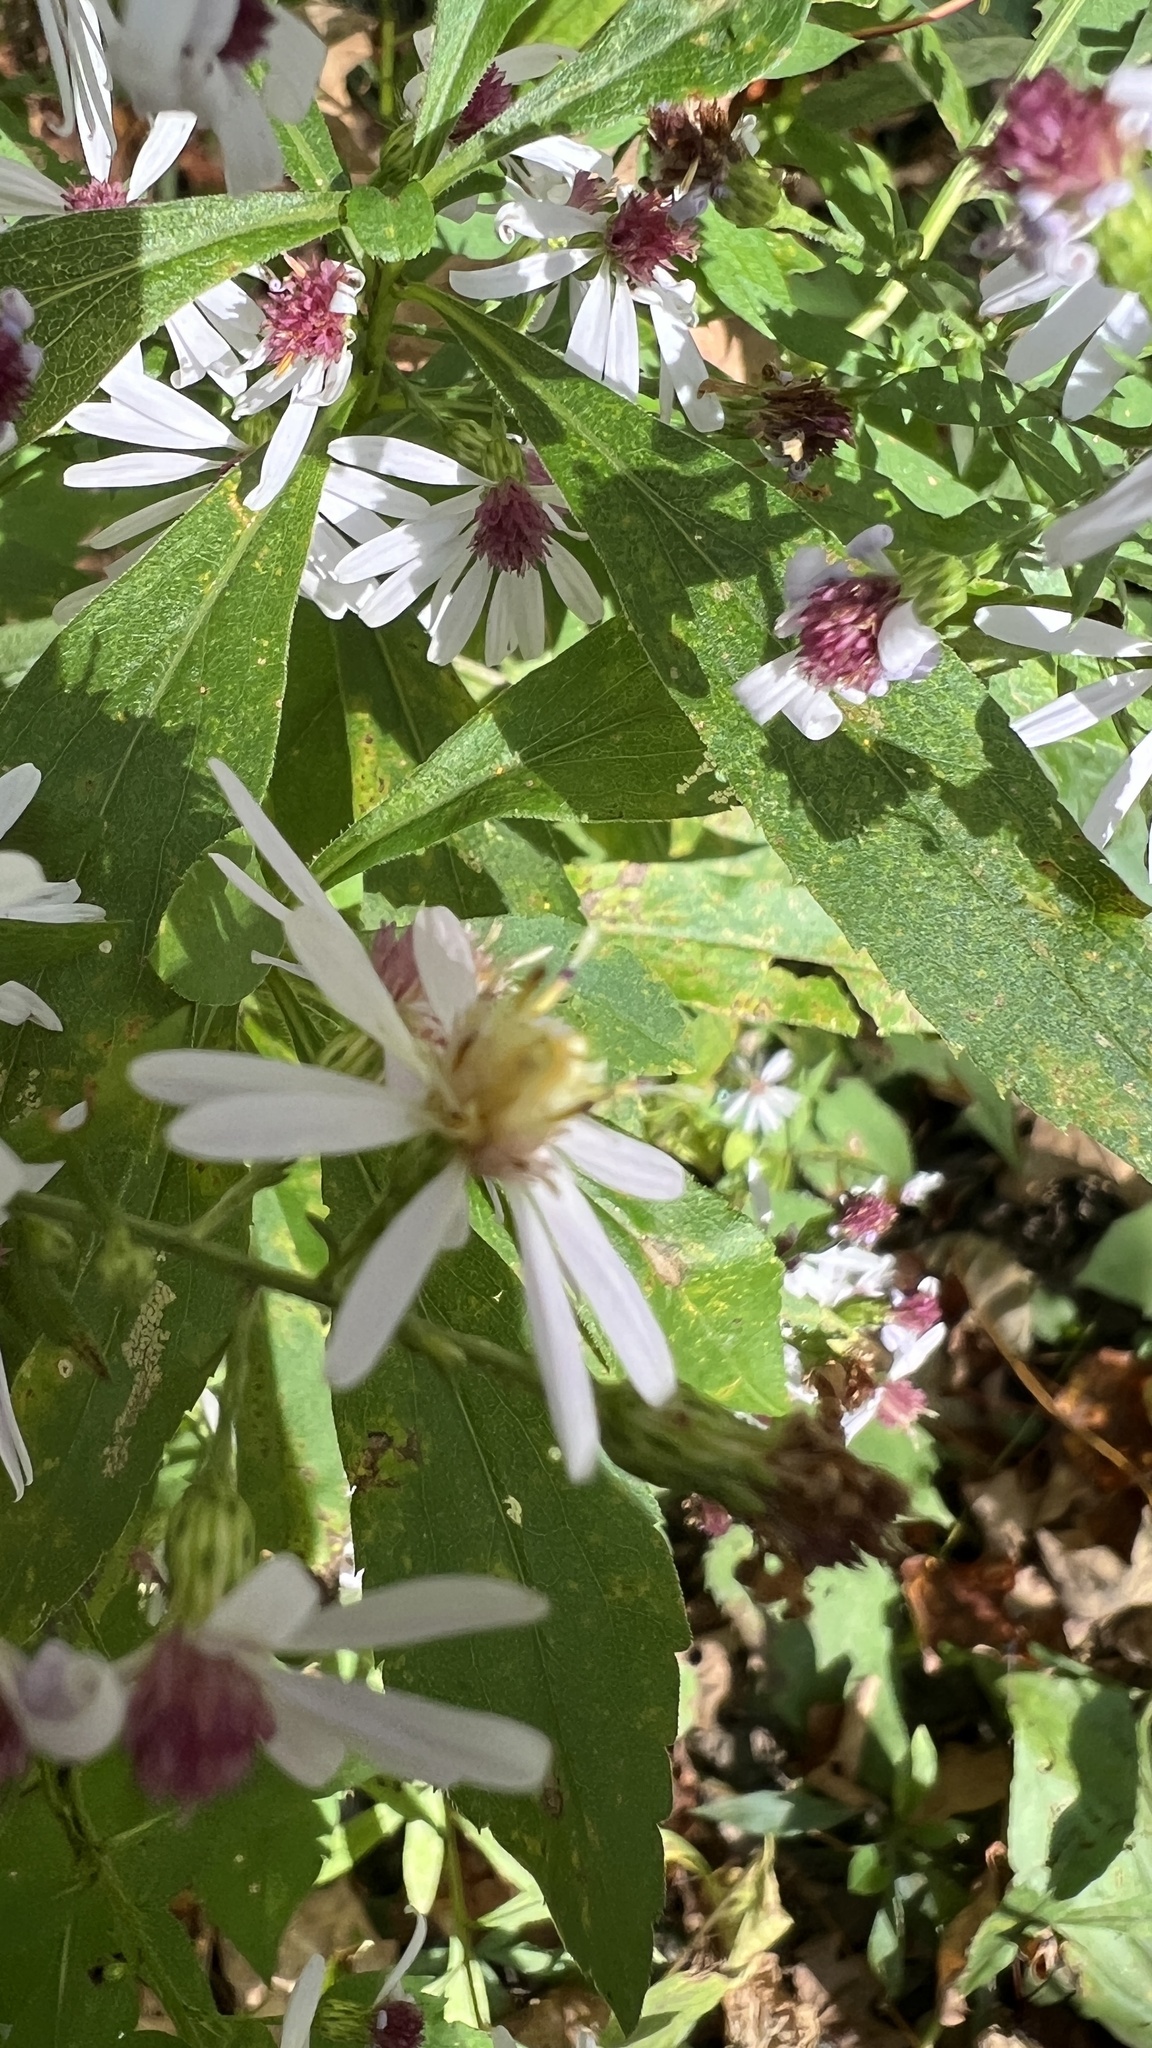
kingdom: Plantae
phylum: Tracheophyta
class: Magnoliopsida
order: Asterales
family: Asteraceae
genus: Symphyotrichum
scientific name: Symphyotrichum cordifolium
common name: Beeweed
